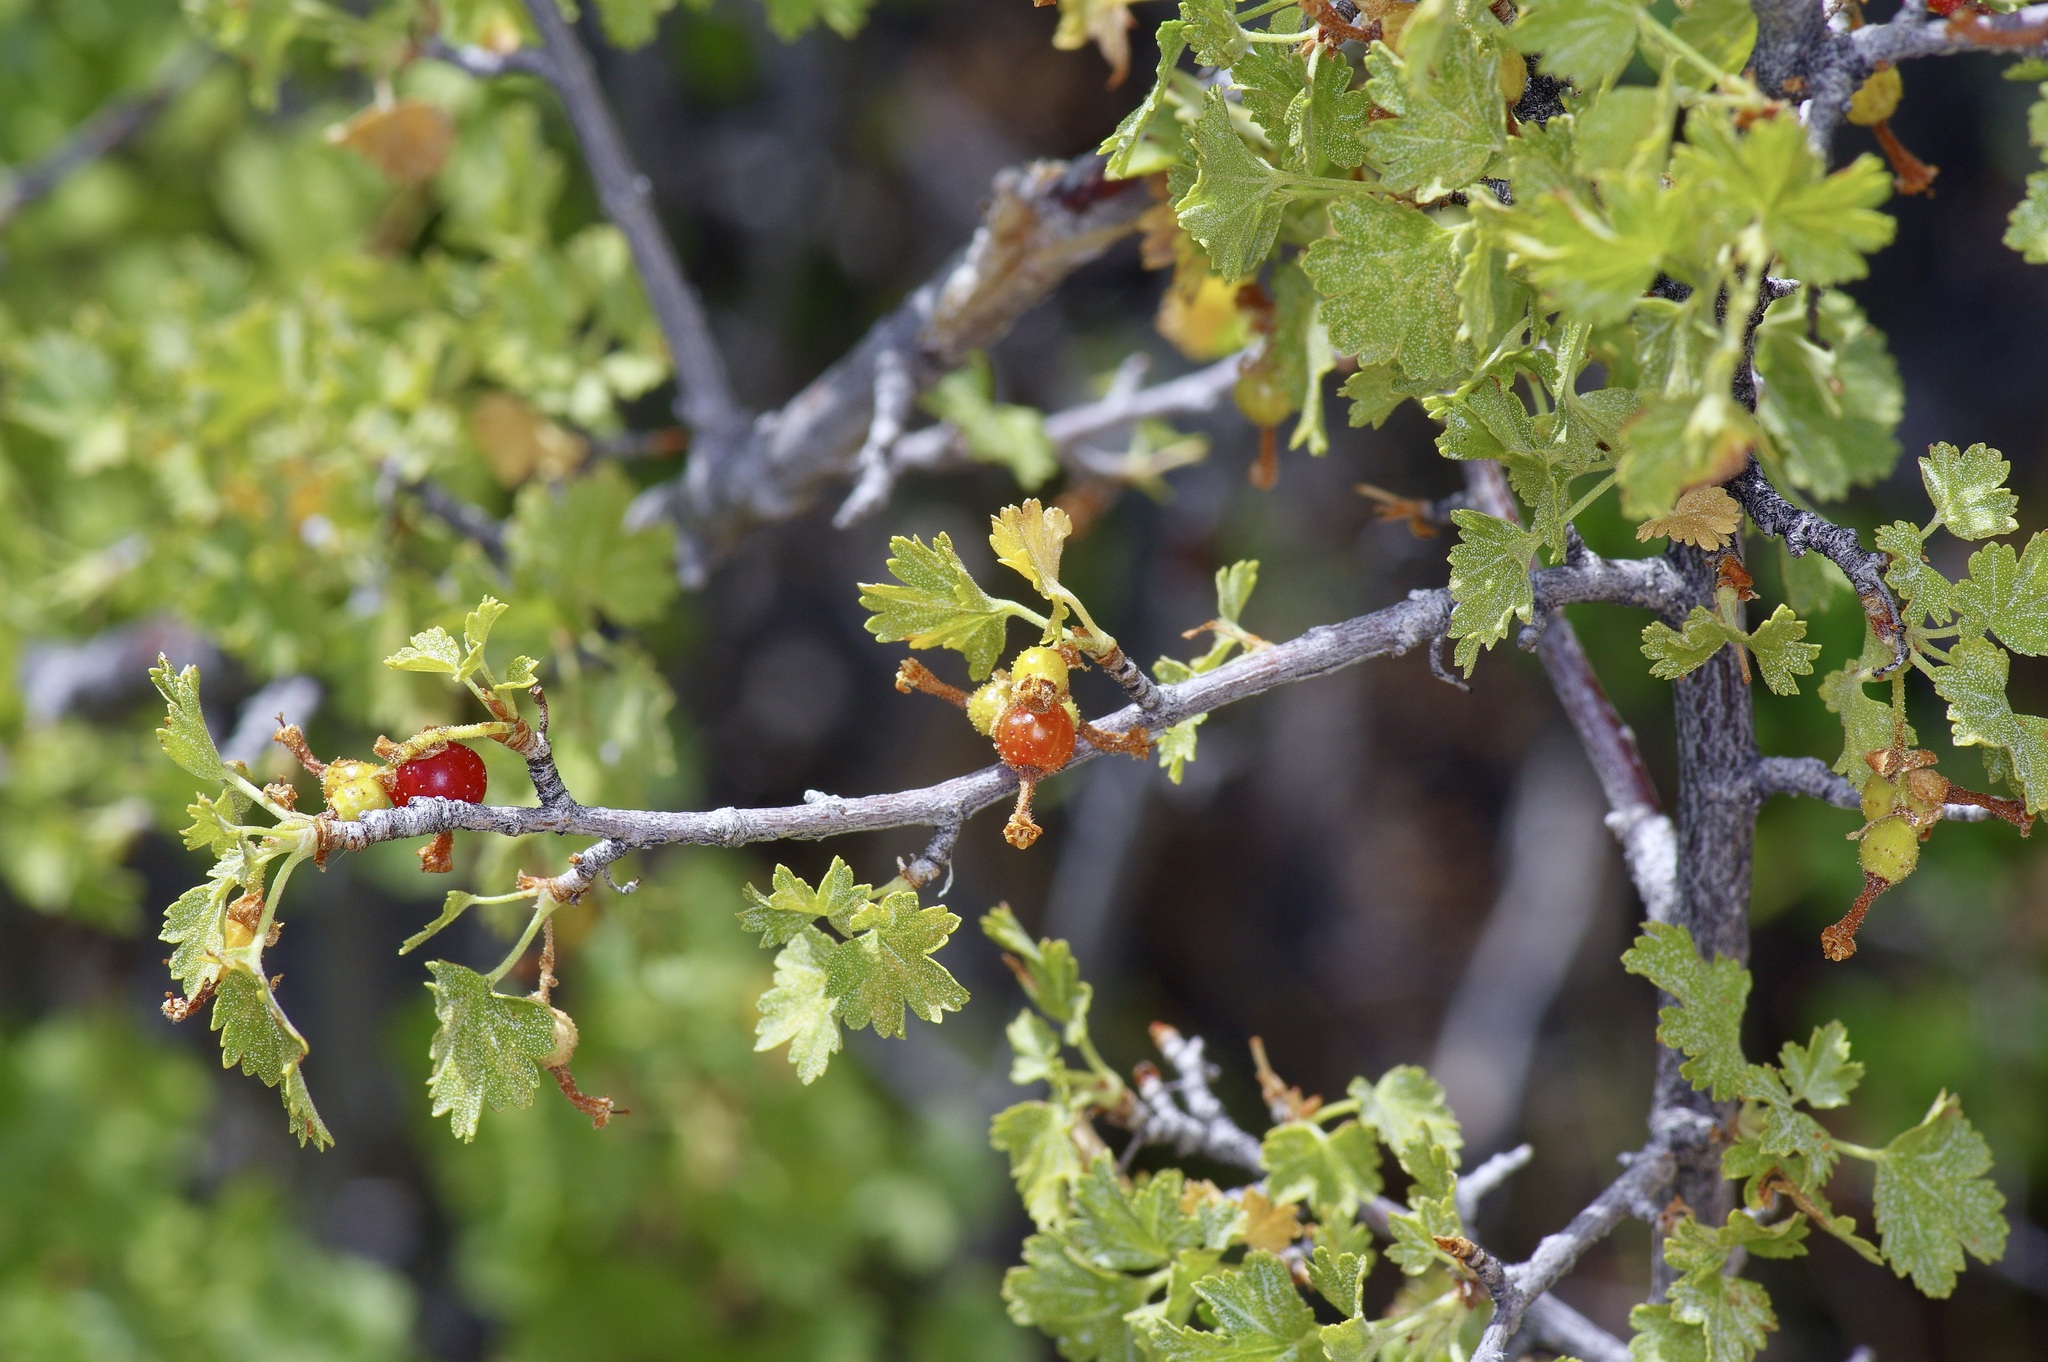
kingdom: Plantae
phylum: Tracheophyta
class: Magnoliopsida
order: Saxifragales
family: Grossulariaceae
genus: Ribes
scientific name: Ribes cereum
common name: Wax currant
